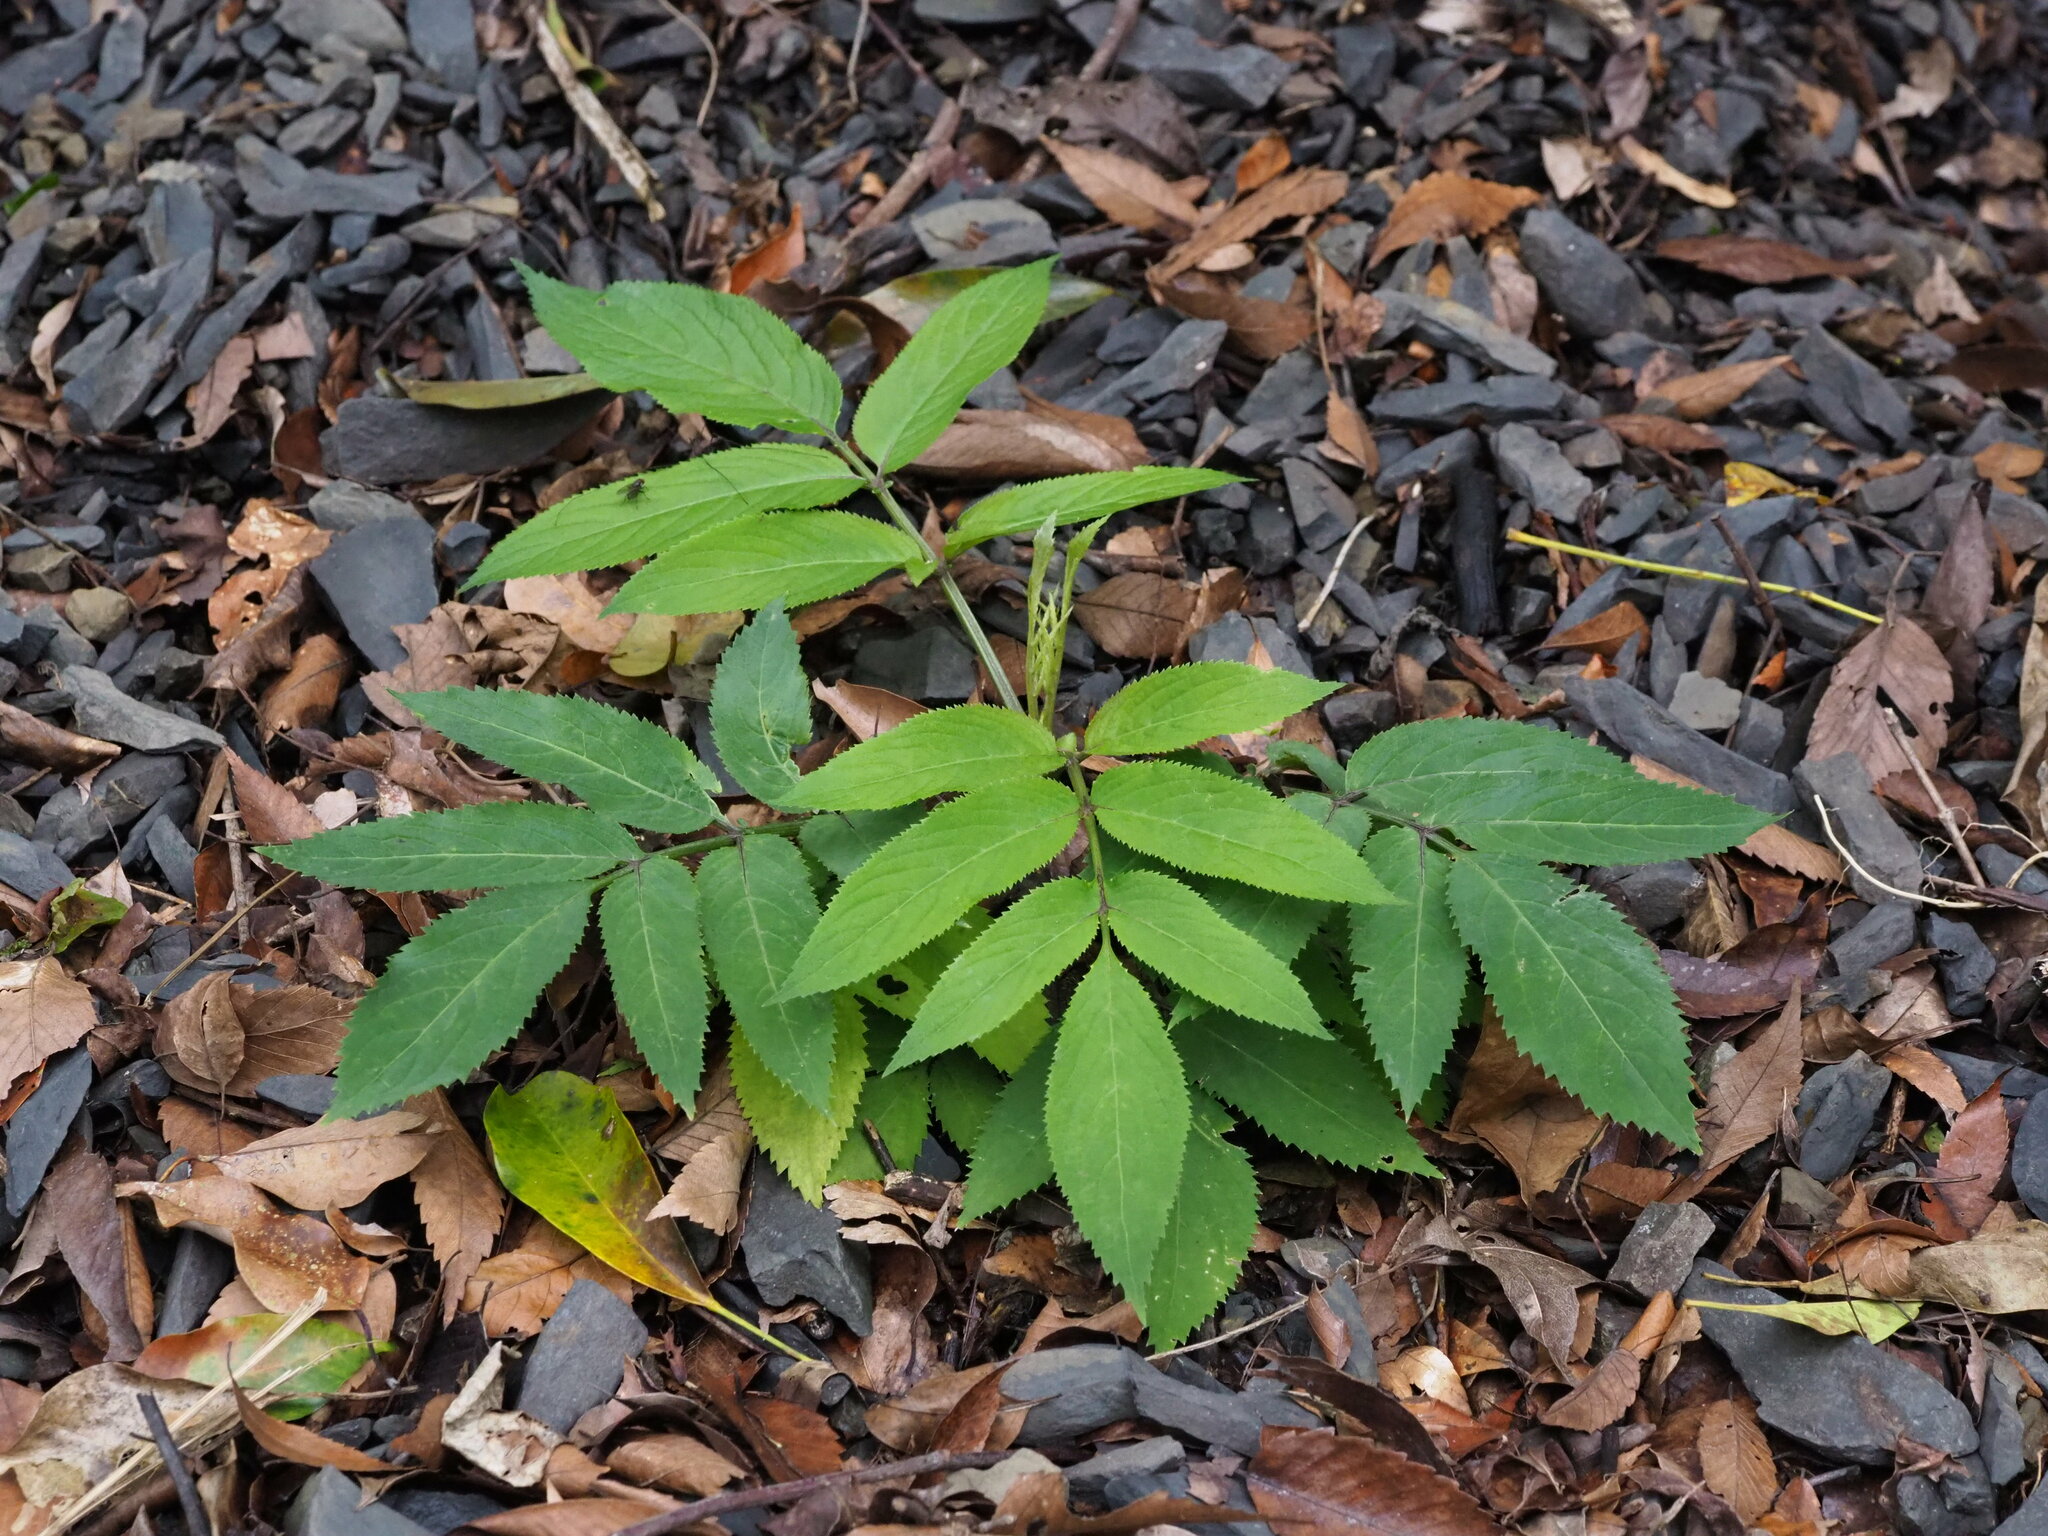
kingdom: Plantae
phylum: Tracheophyta
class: Magnoliopsida
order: Dipsacales
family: Viburnaceae
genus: Sambucus
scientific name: Sambucus javanica
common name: Chinese elder
